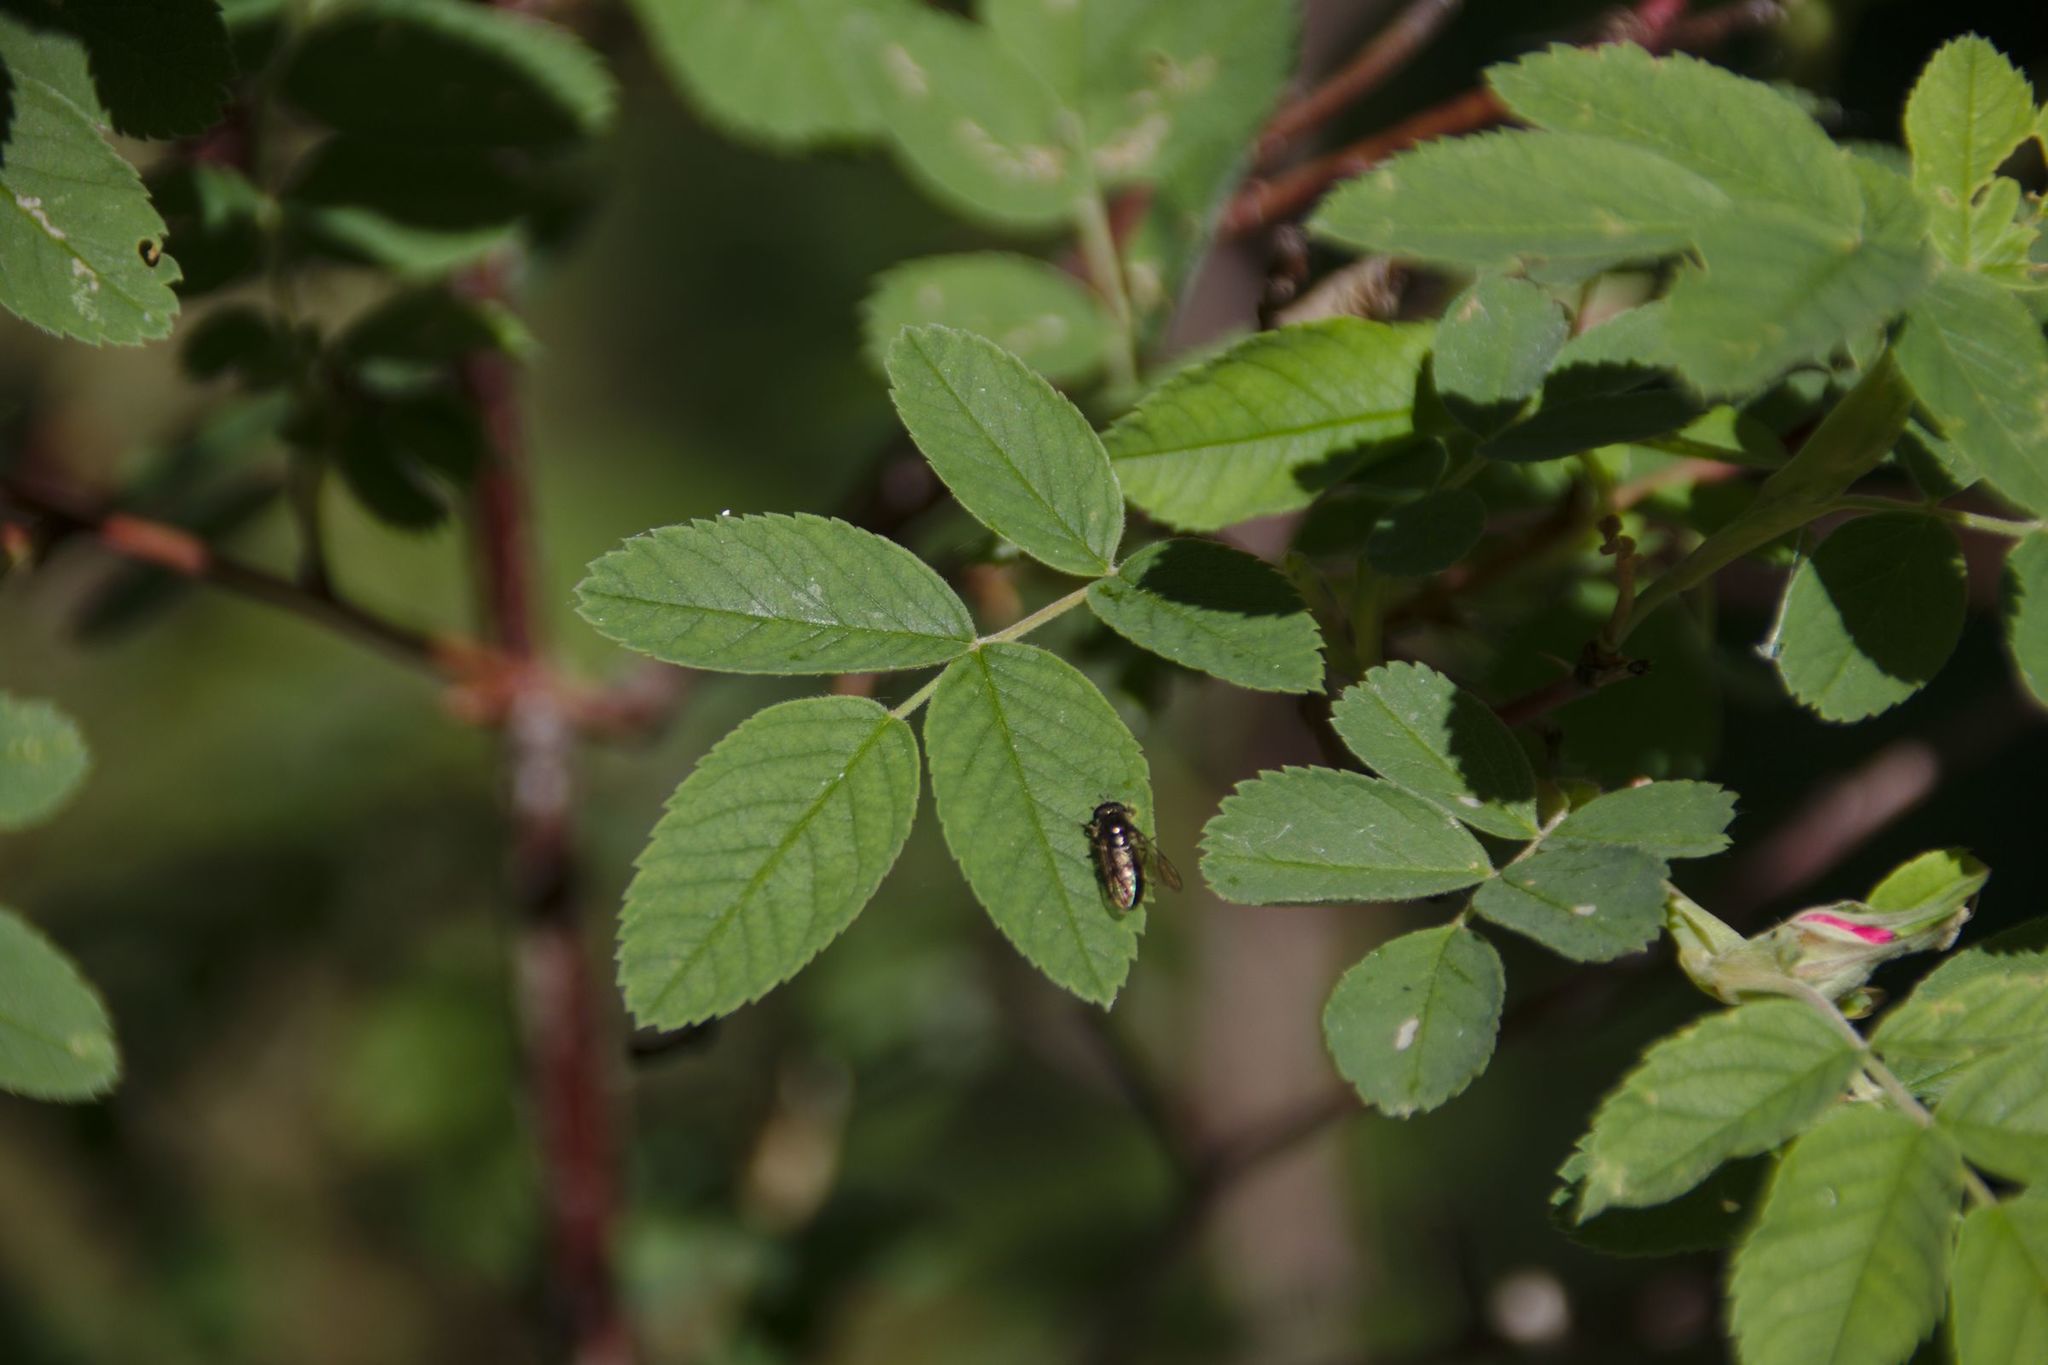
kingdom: Plantae
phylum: Tracheophyta
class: Magnoliopsida
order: Rosales
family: Rosaceae
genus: Rosa
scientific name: Rosa majalis
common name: Cinnamon rose
